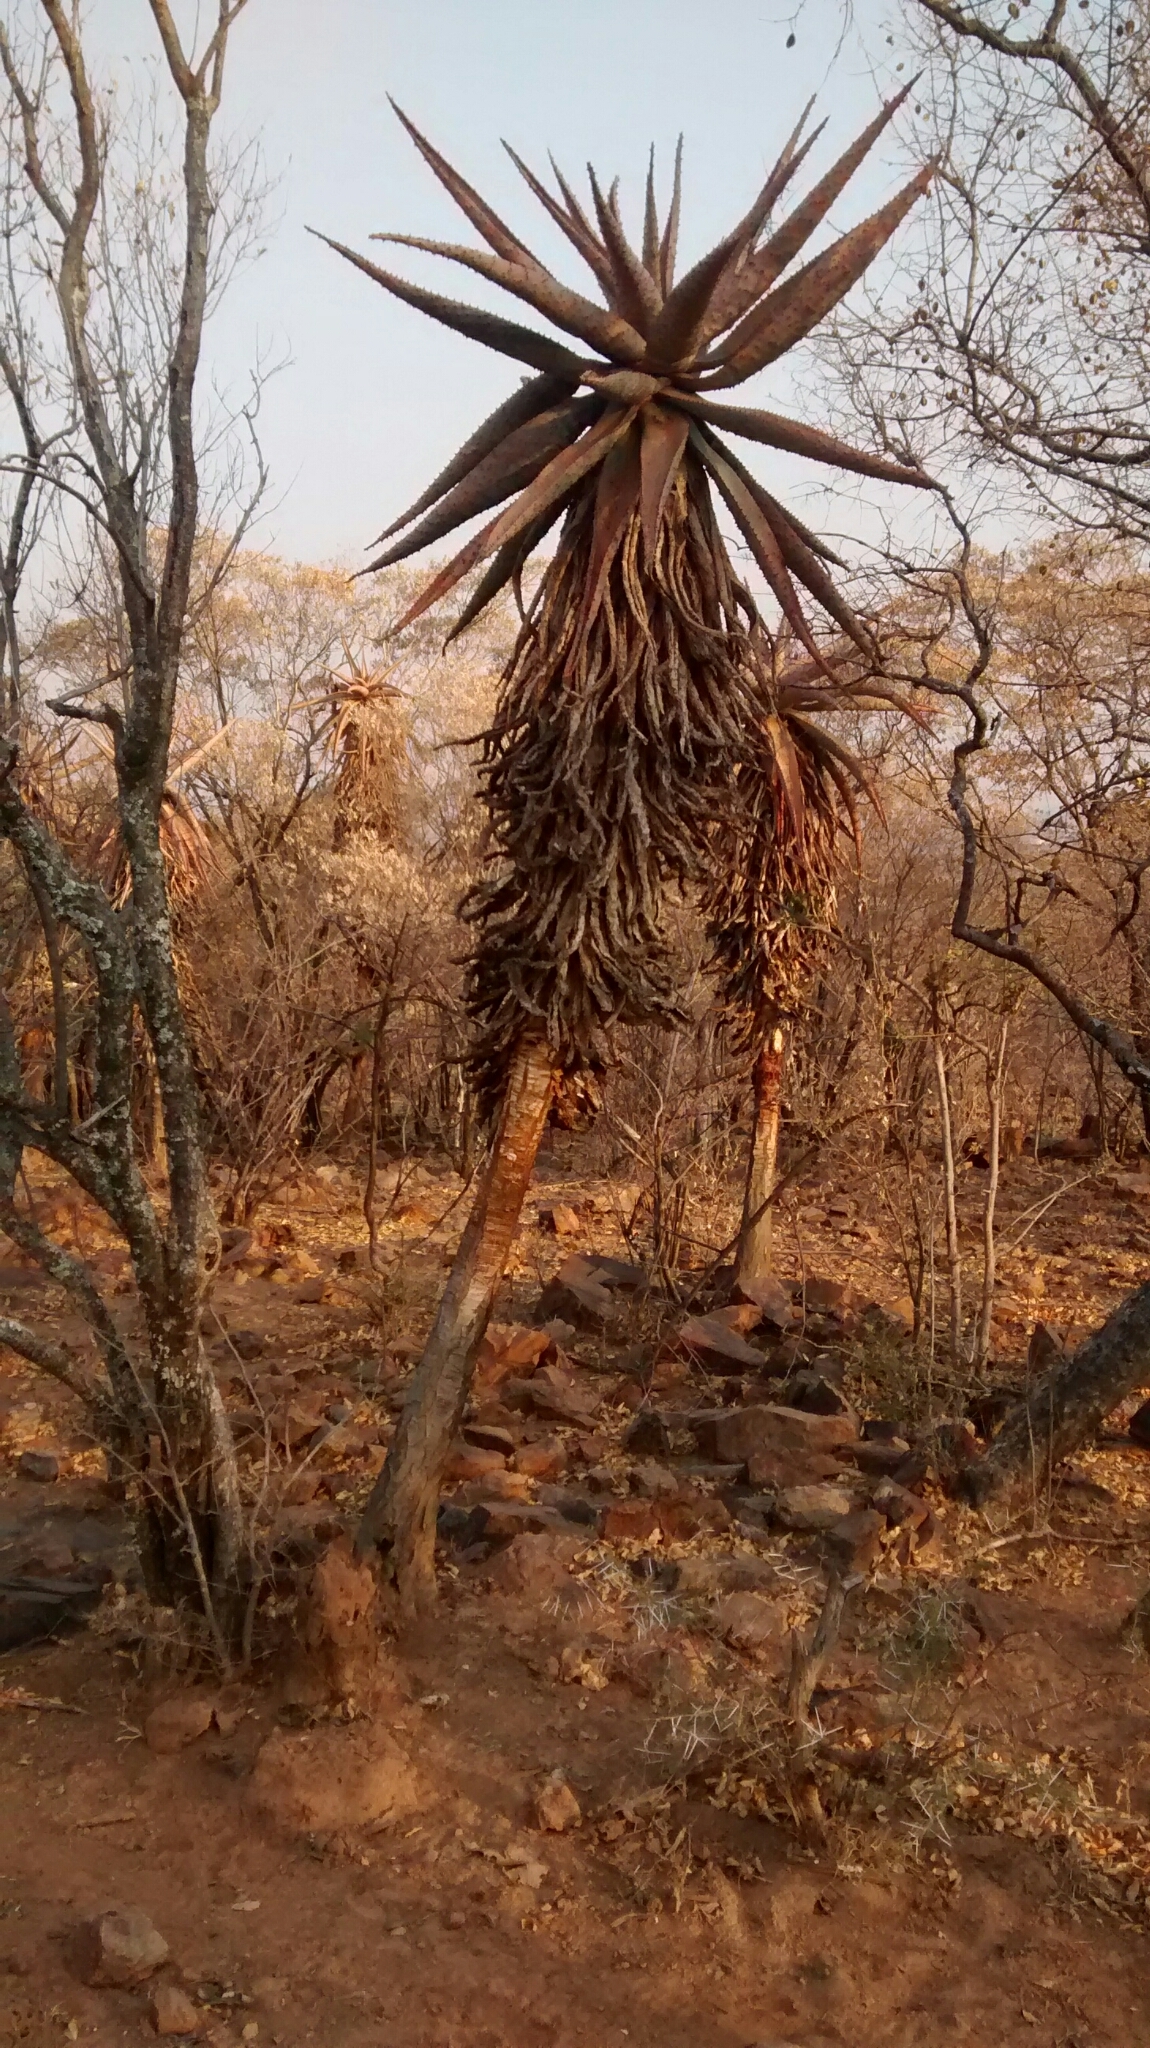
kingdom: Plantae
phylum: Tracheophyta
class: Liliopsida
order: Asparagales
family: Asphodelaceae
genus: Aloe
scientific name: Aloe marlothii
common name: Flat-flowered aloe
